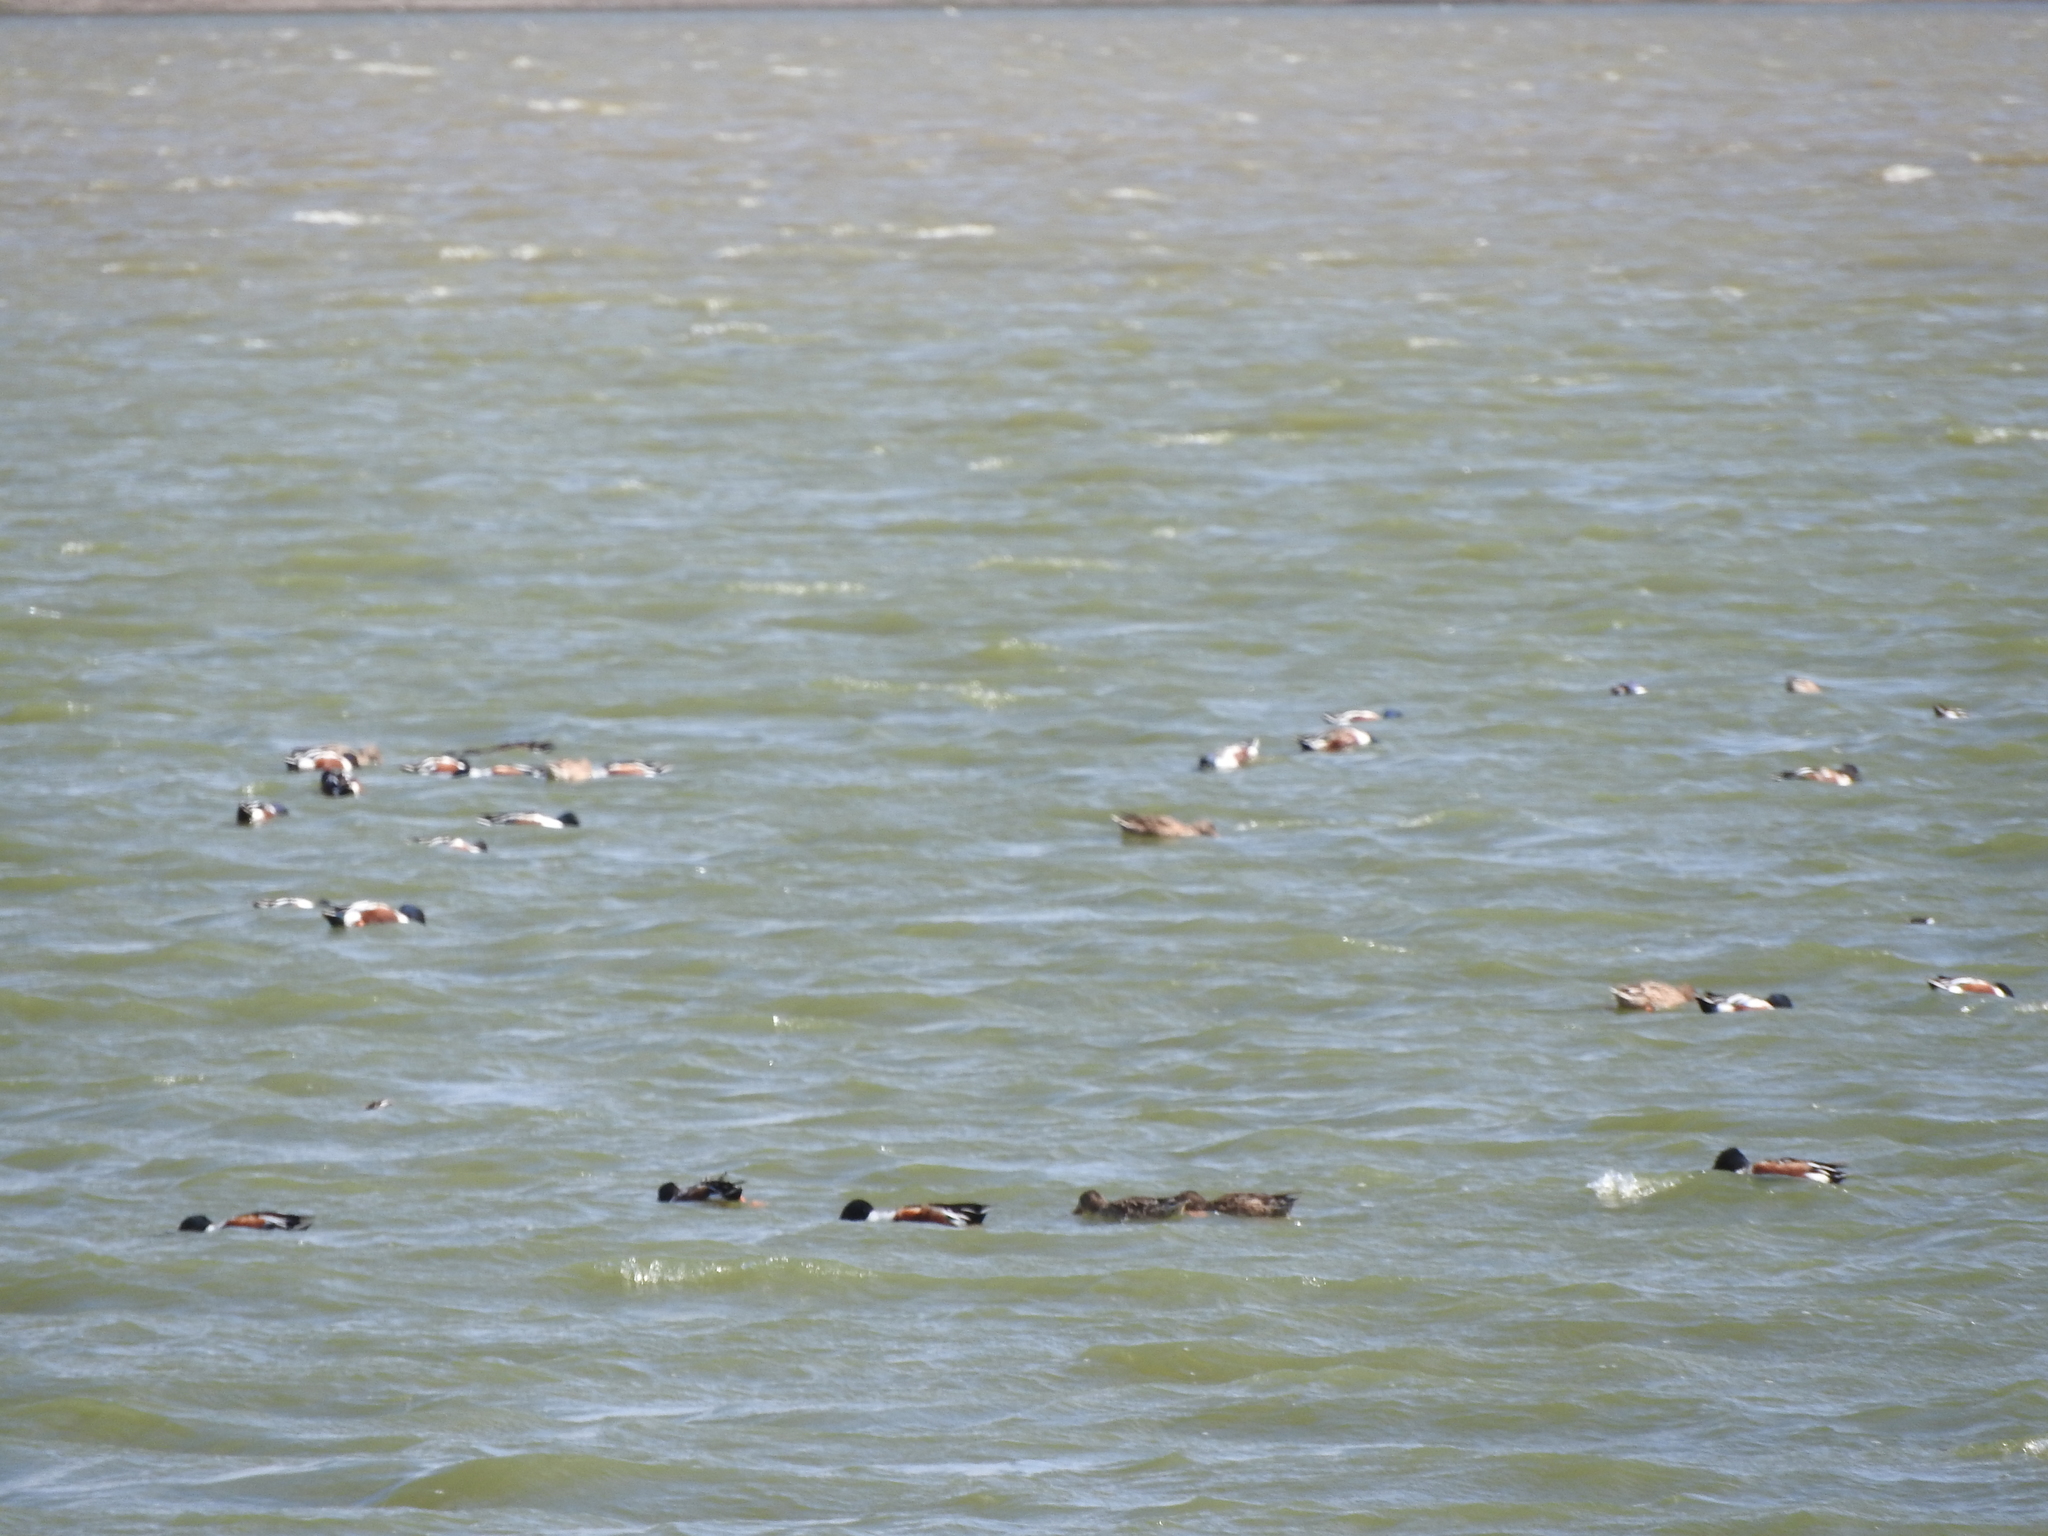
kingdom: Animalia
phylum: Chordata
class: Aves
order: Anseriformes
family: Anatidae
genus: Spatula
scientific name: Spatula clypeata
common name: Northern shoveler
